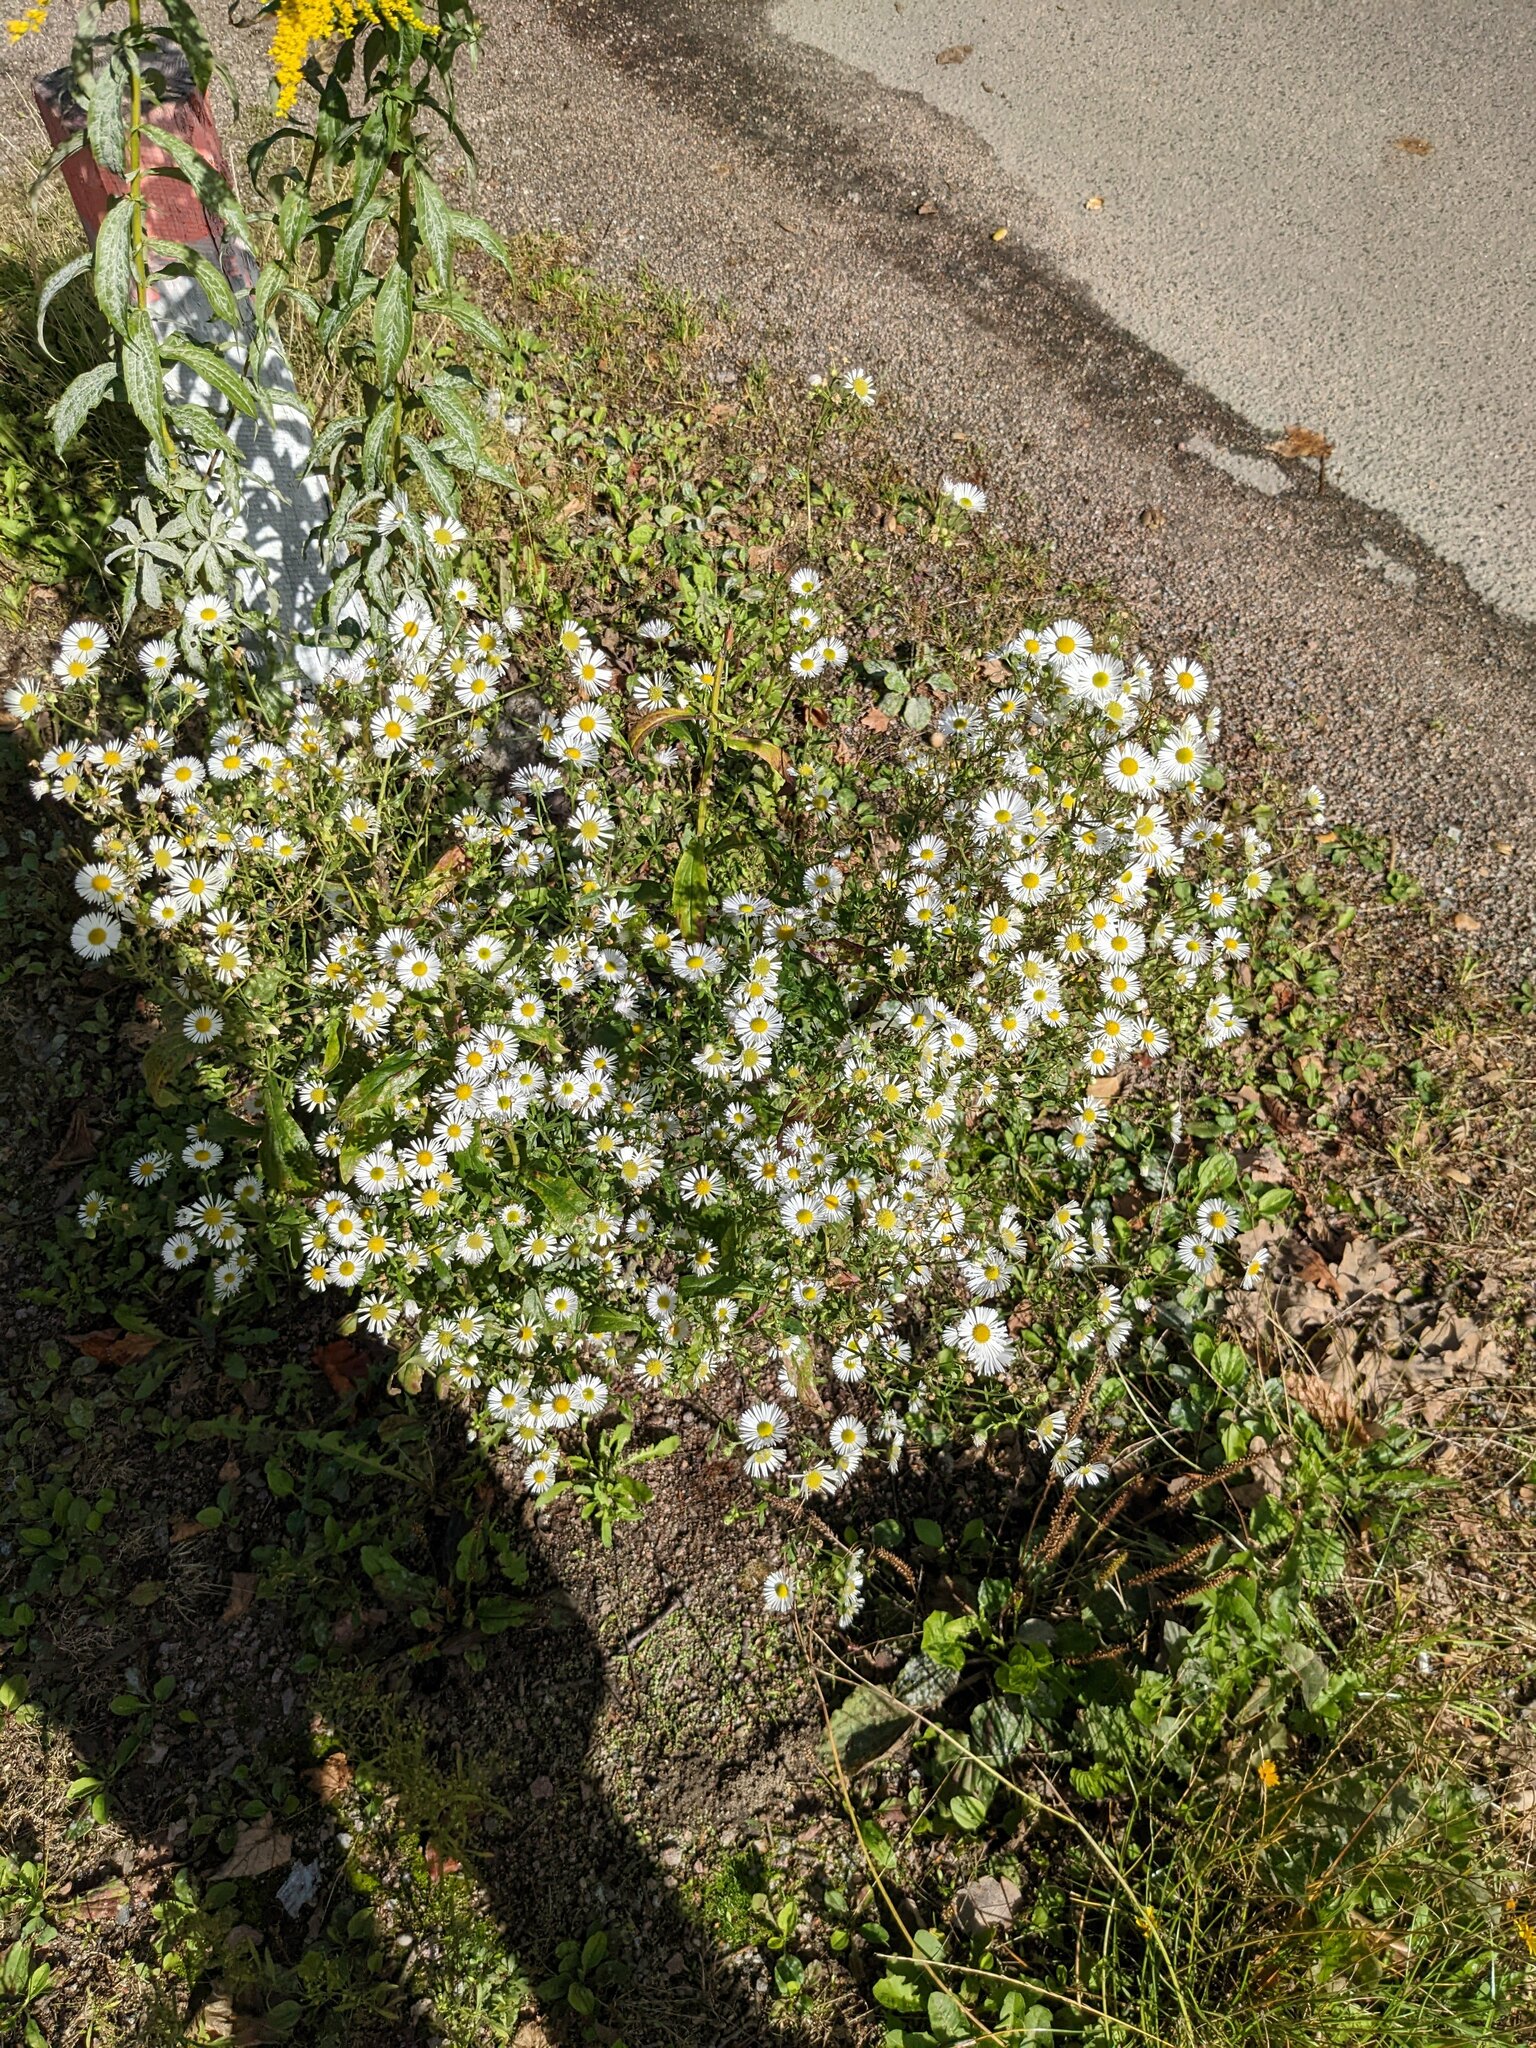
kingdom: Plantae
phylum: Tracheophyta
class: Magnoliopsida
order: Asterales
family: Asteraceae
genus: Erigeron
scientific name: Erigeron annuus
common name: Tall fleabane
